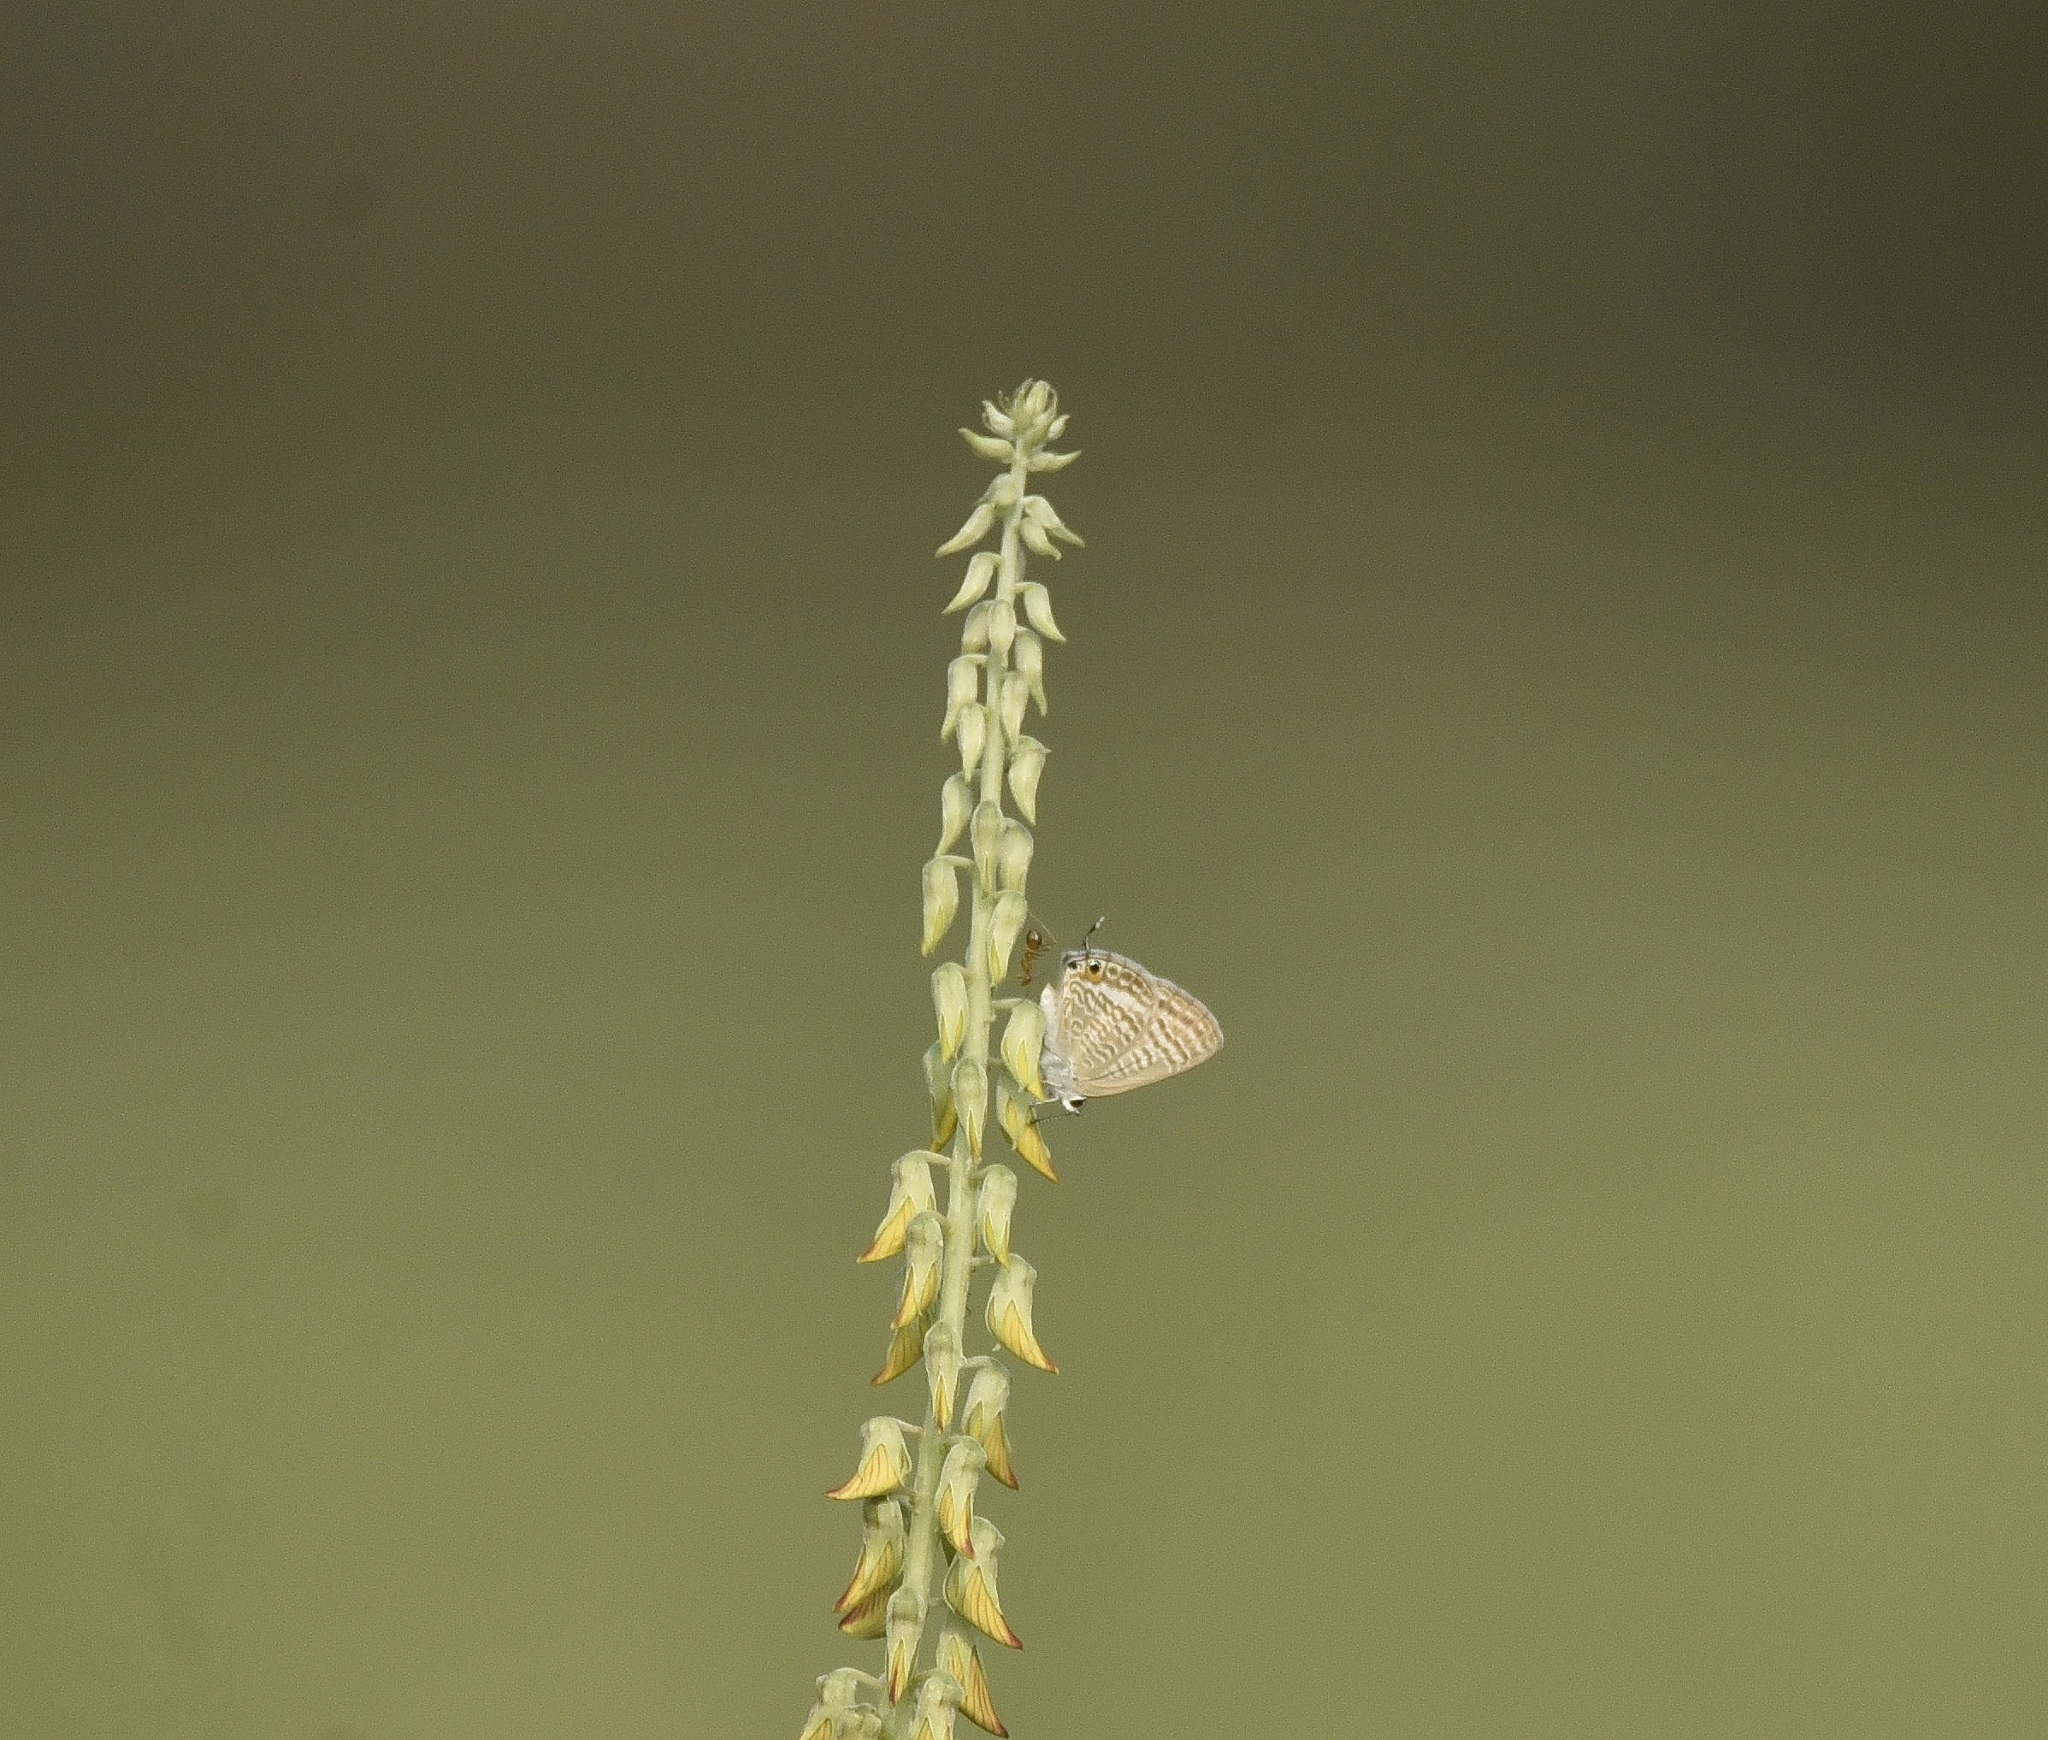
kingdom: Animalia
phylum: Arthropoda
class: Insecta
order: Lepidoptera
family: Lycaenidae
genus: Lampides
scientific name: Lampides boeticus
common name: Long-tailed blue
